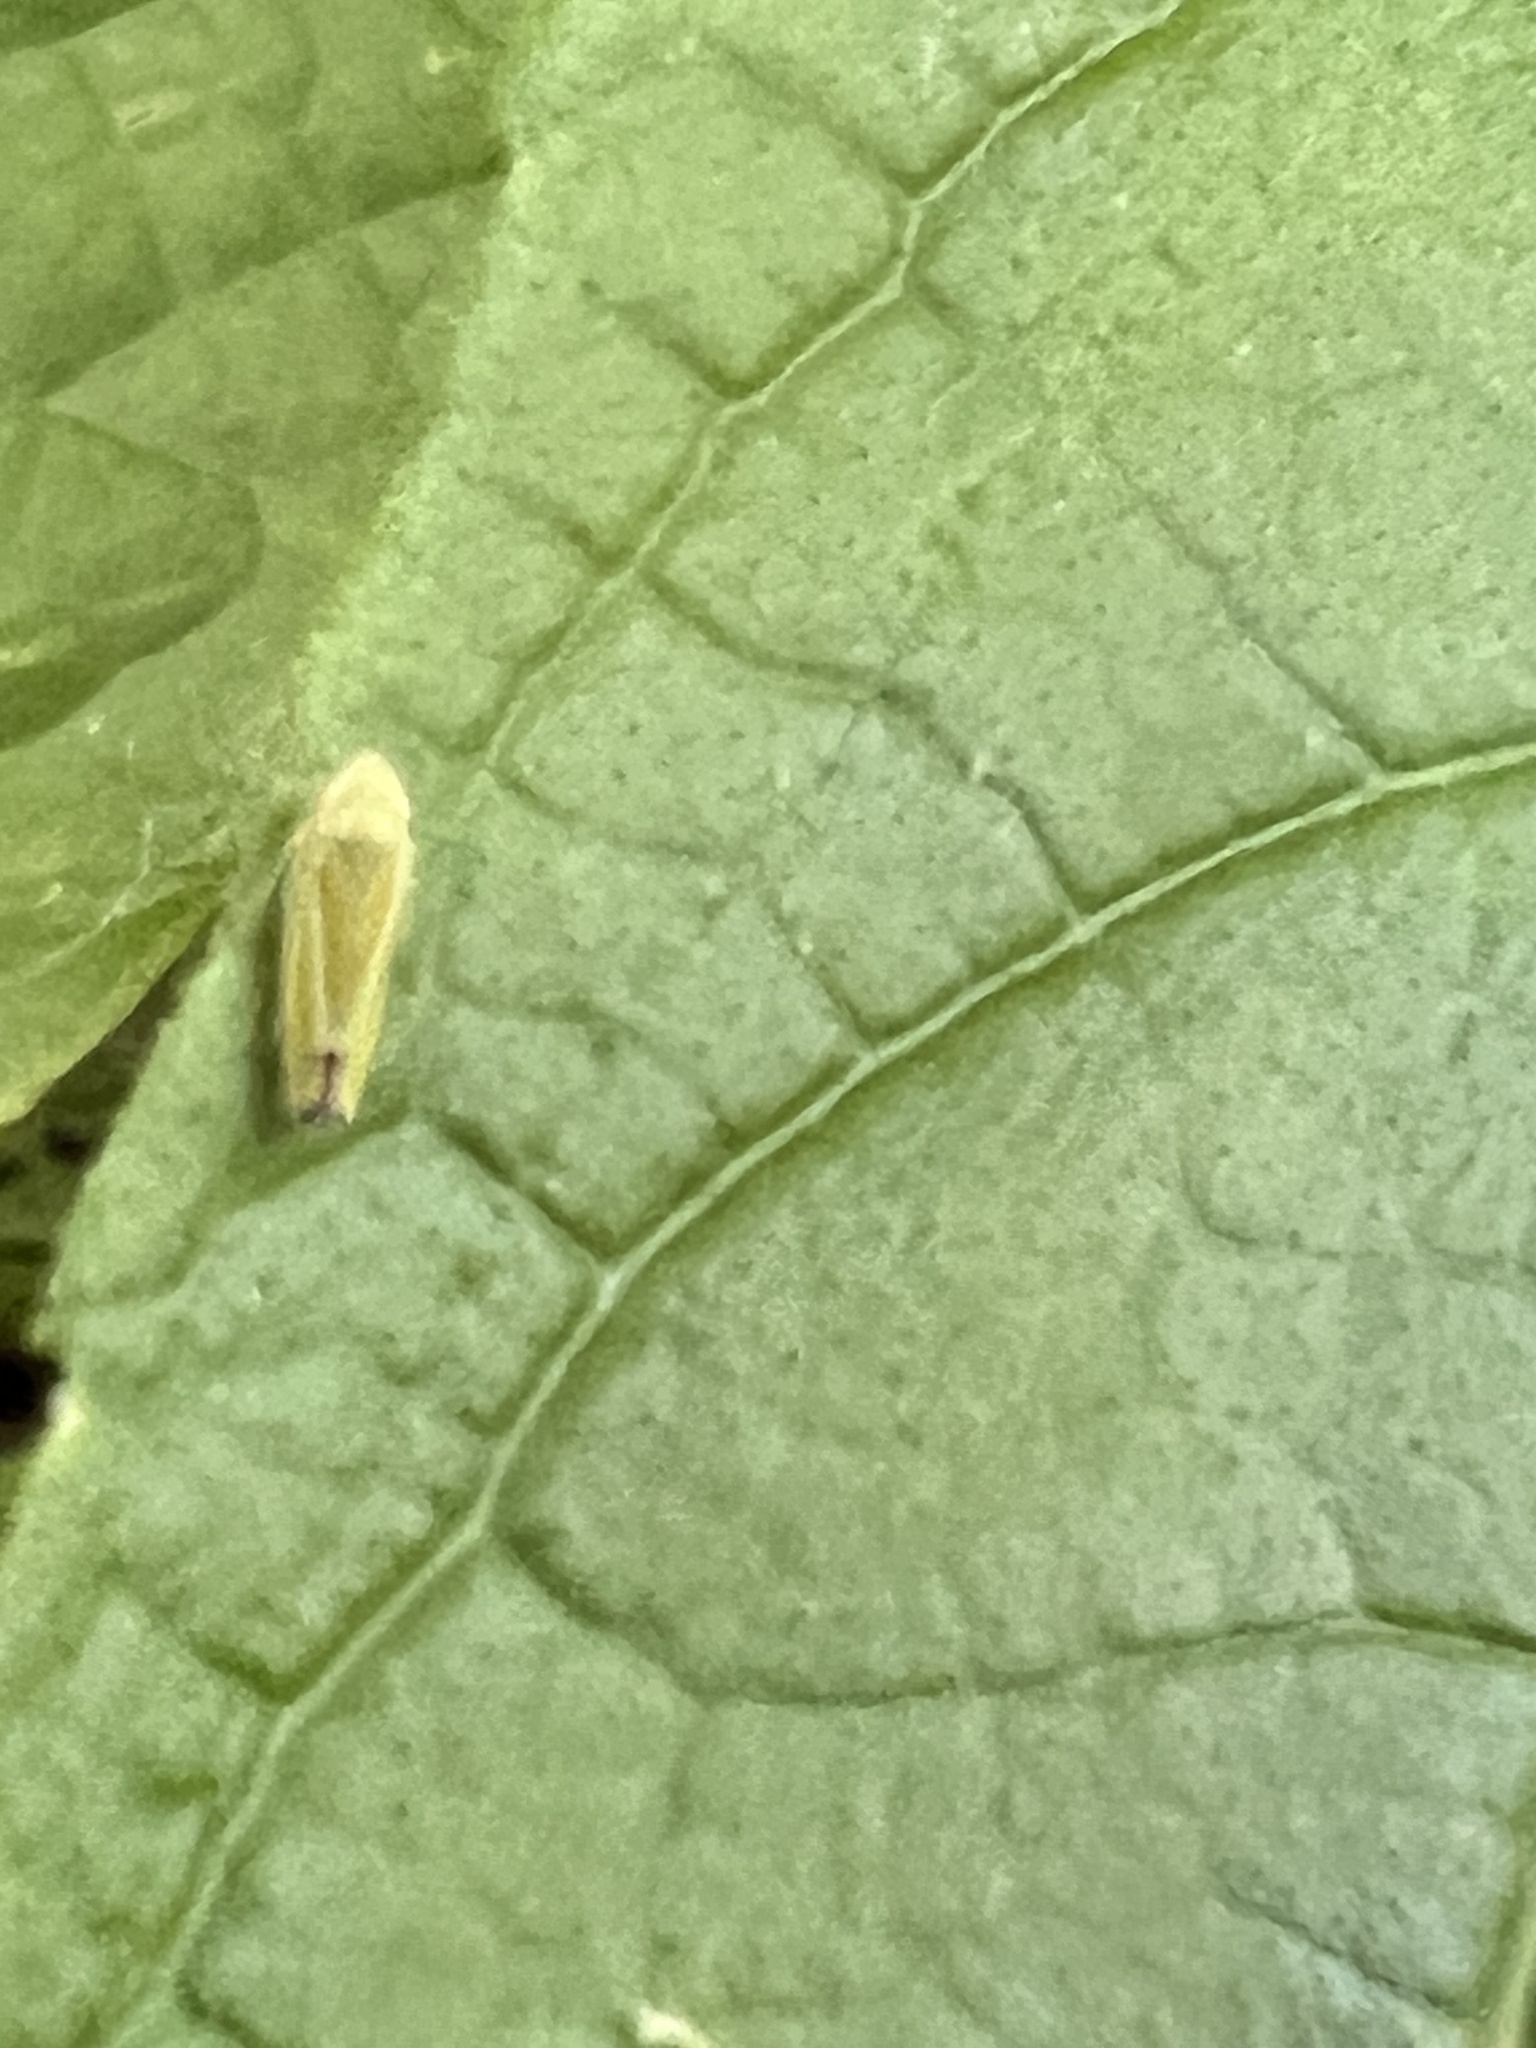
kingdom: Animalia
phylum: Arthropoda
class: Insecta
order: Hemiptera
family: Cicadellidae
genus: Graphocephala
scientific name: Graphocephala versuta
